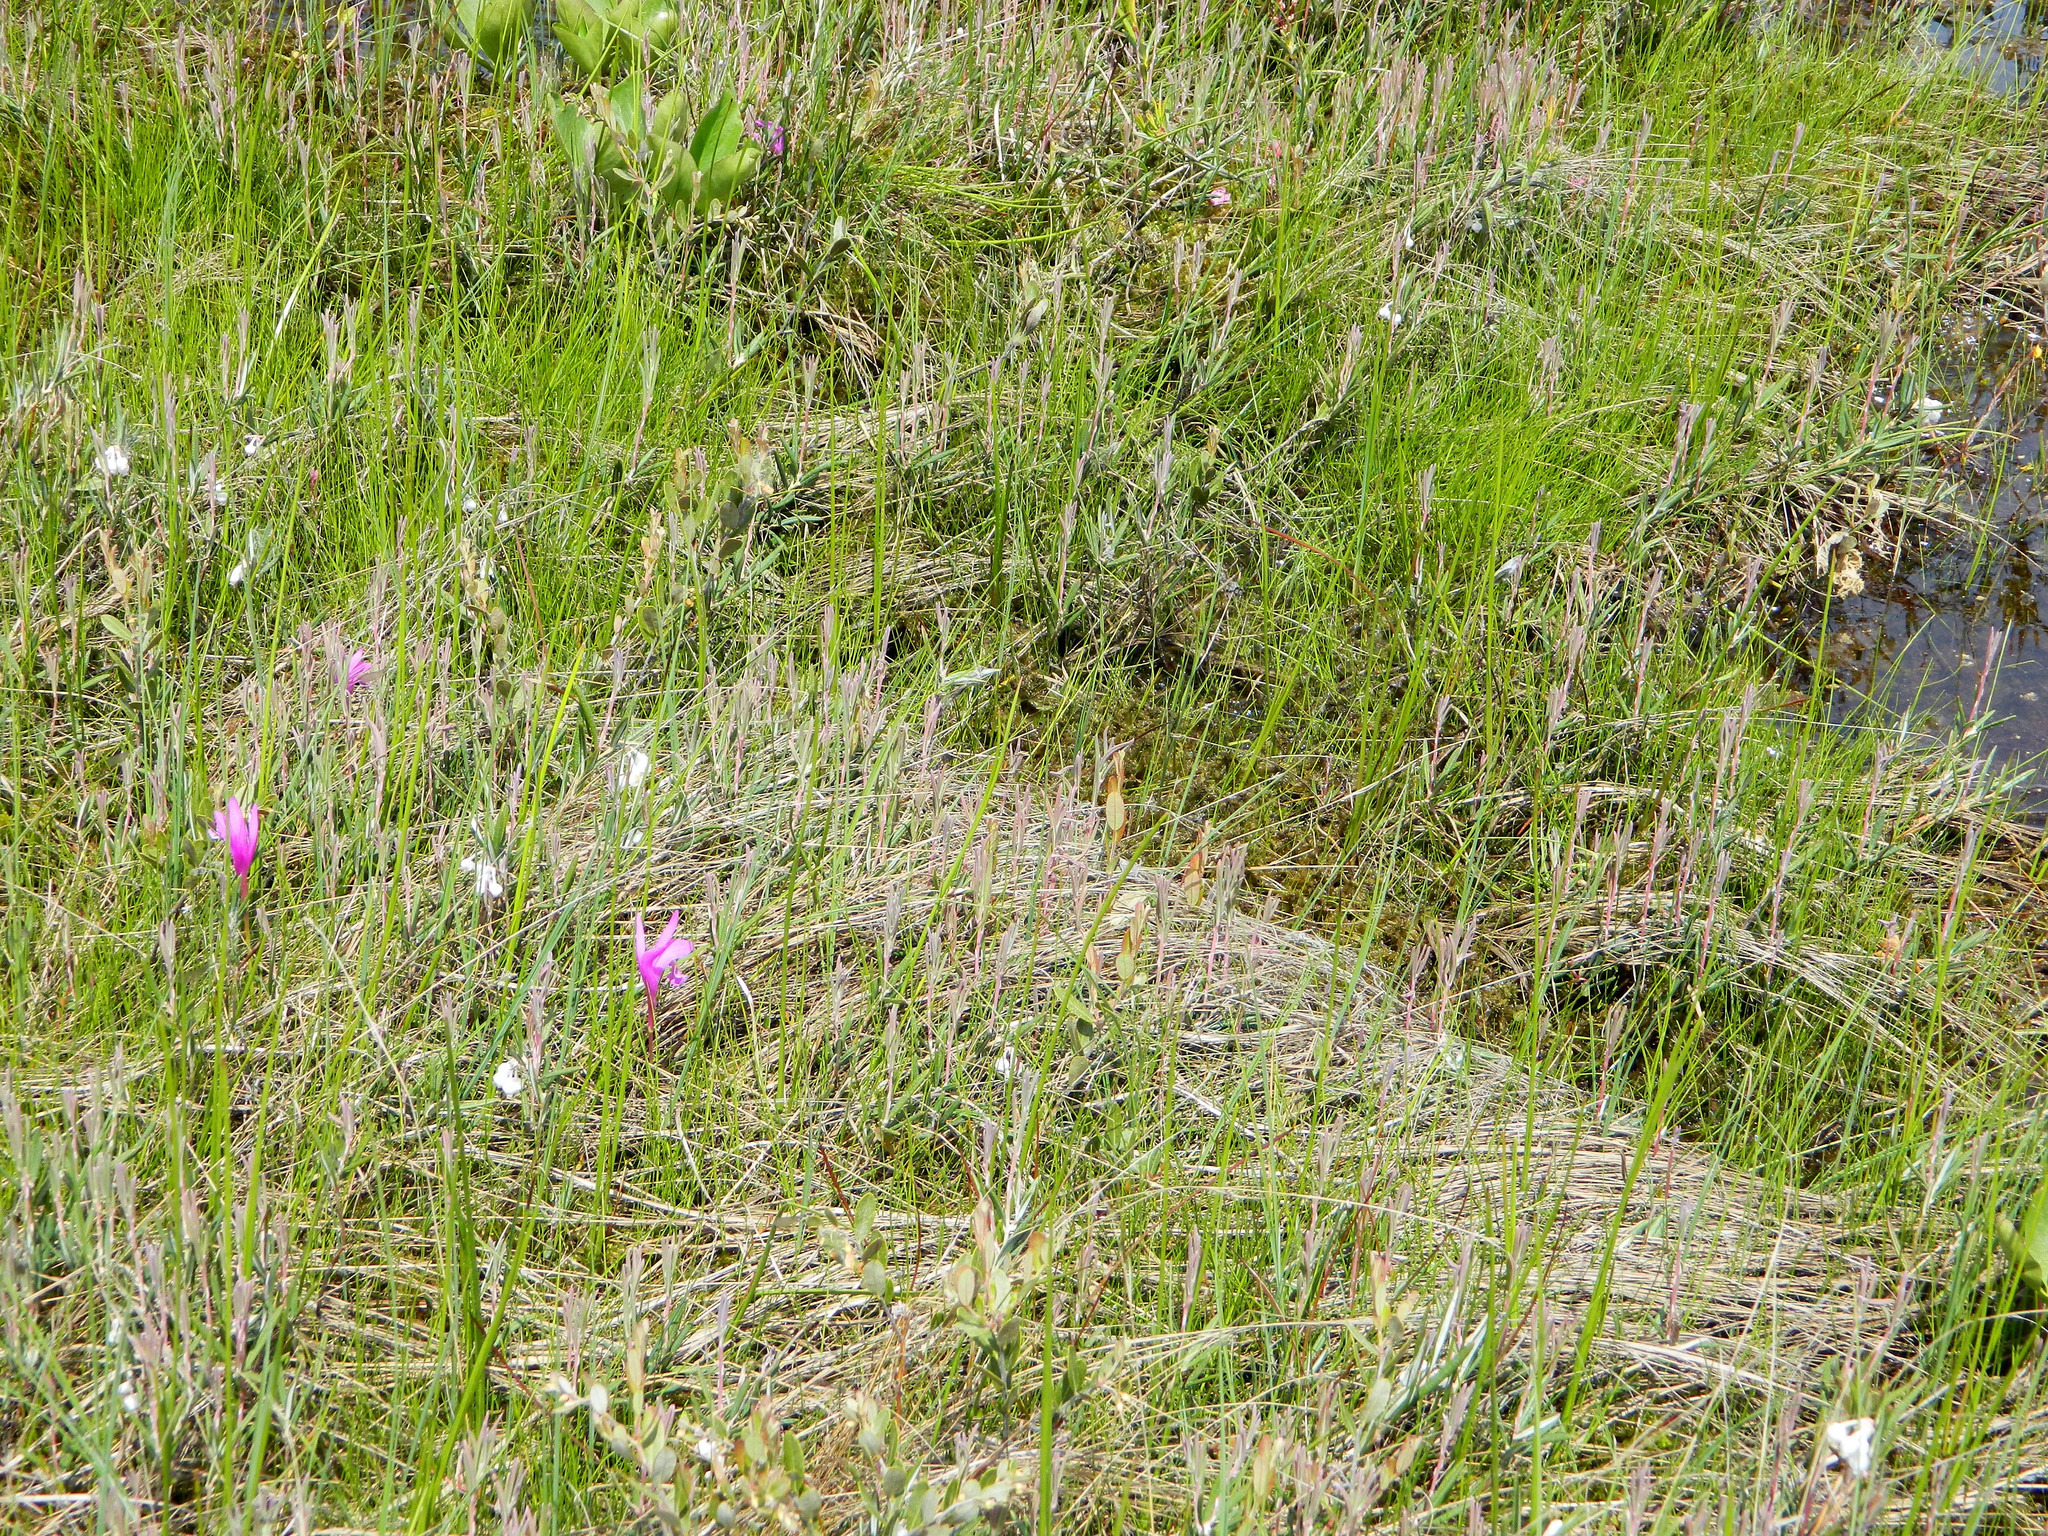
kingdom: Plantae
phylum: Tracheophyta
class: Liliopsida
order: Asparagales
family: Orchidaceae
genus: Arethusa
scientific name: Arethusa bulbosa
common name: Arethusa
